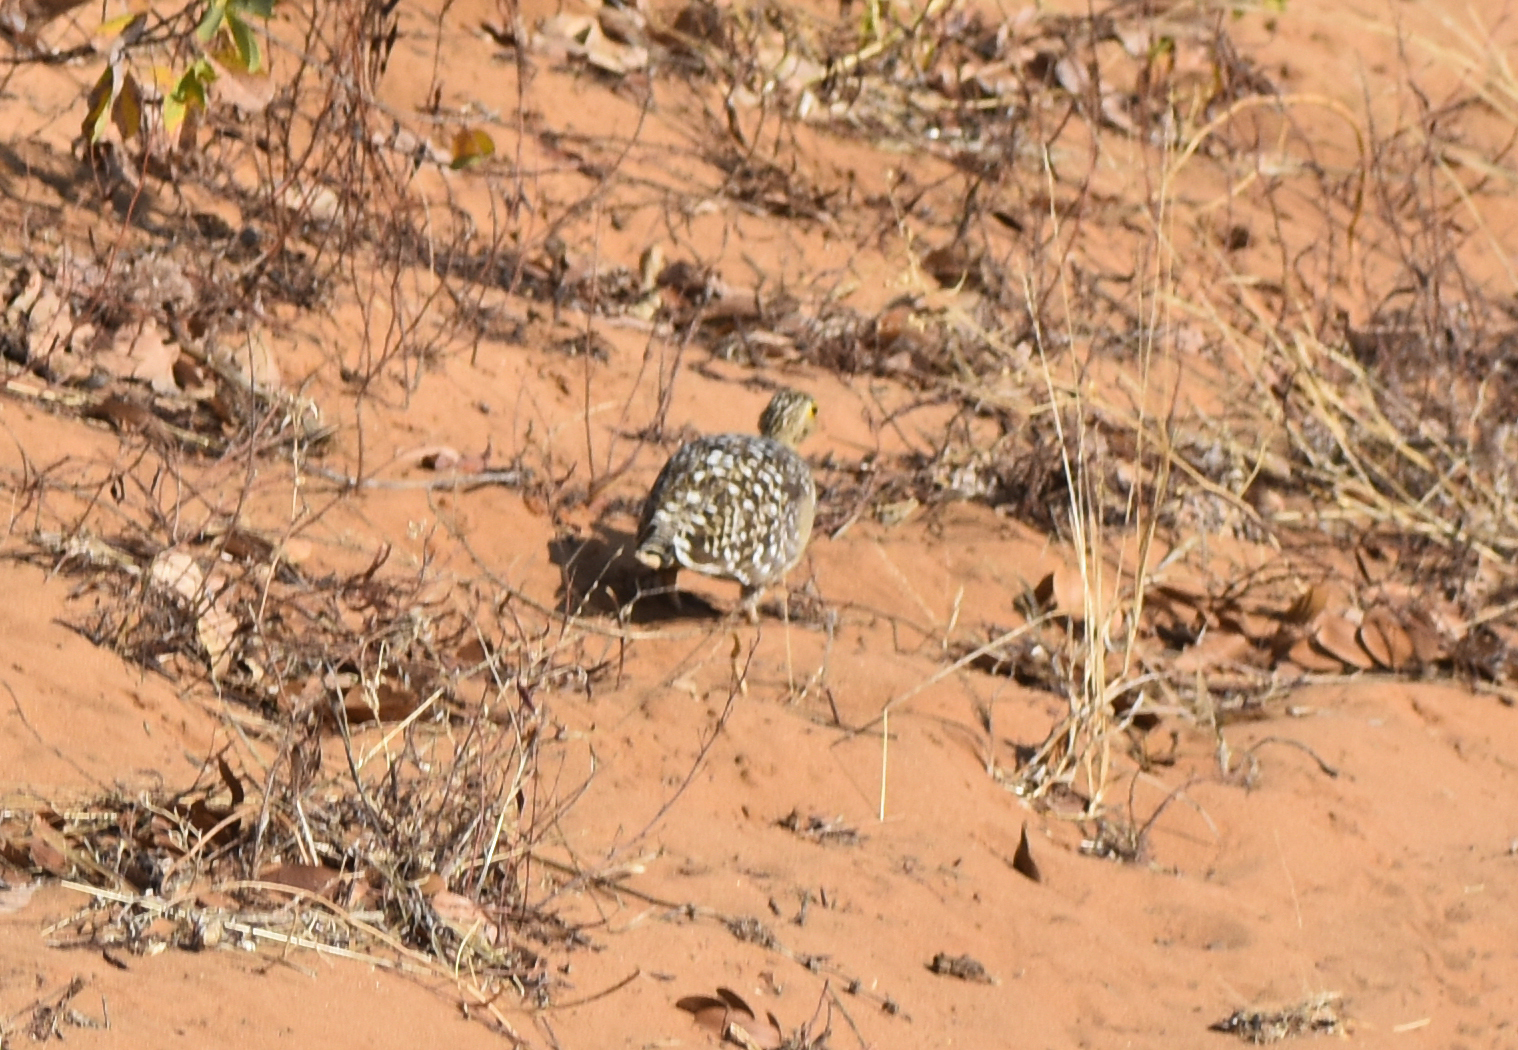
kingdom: Animalia
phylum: Chordata
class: Aves
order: Pteroclidiformes
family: Pteroclididae
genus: Pterocles
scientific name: Pterocles bicinctus
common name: Double-banded sandgrouse
